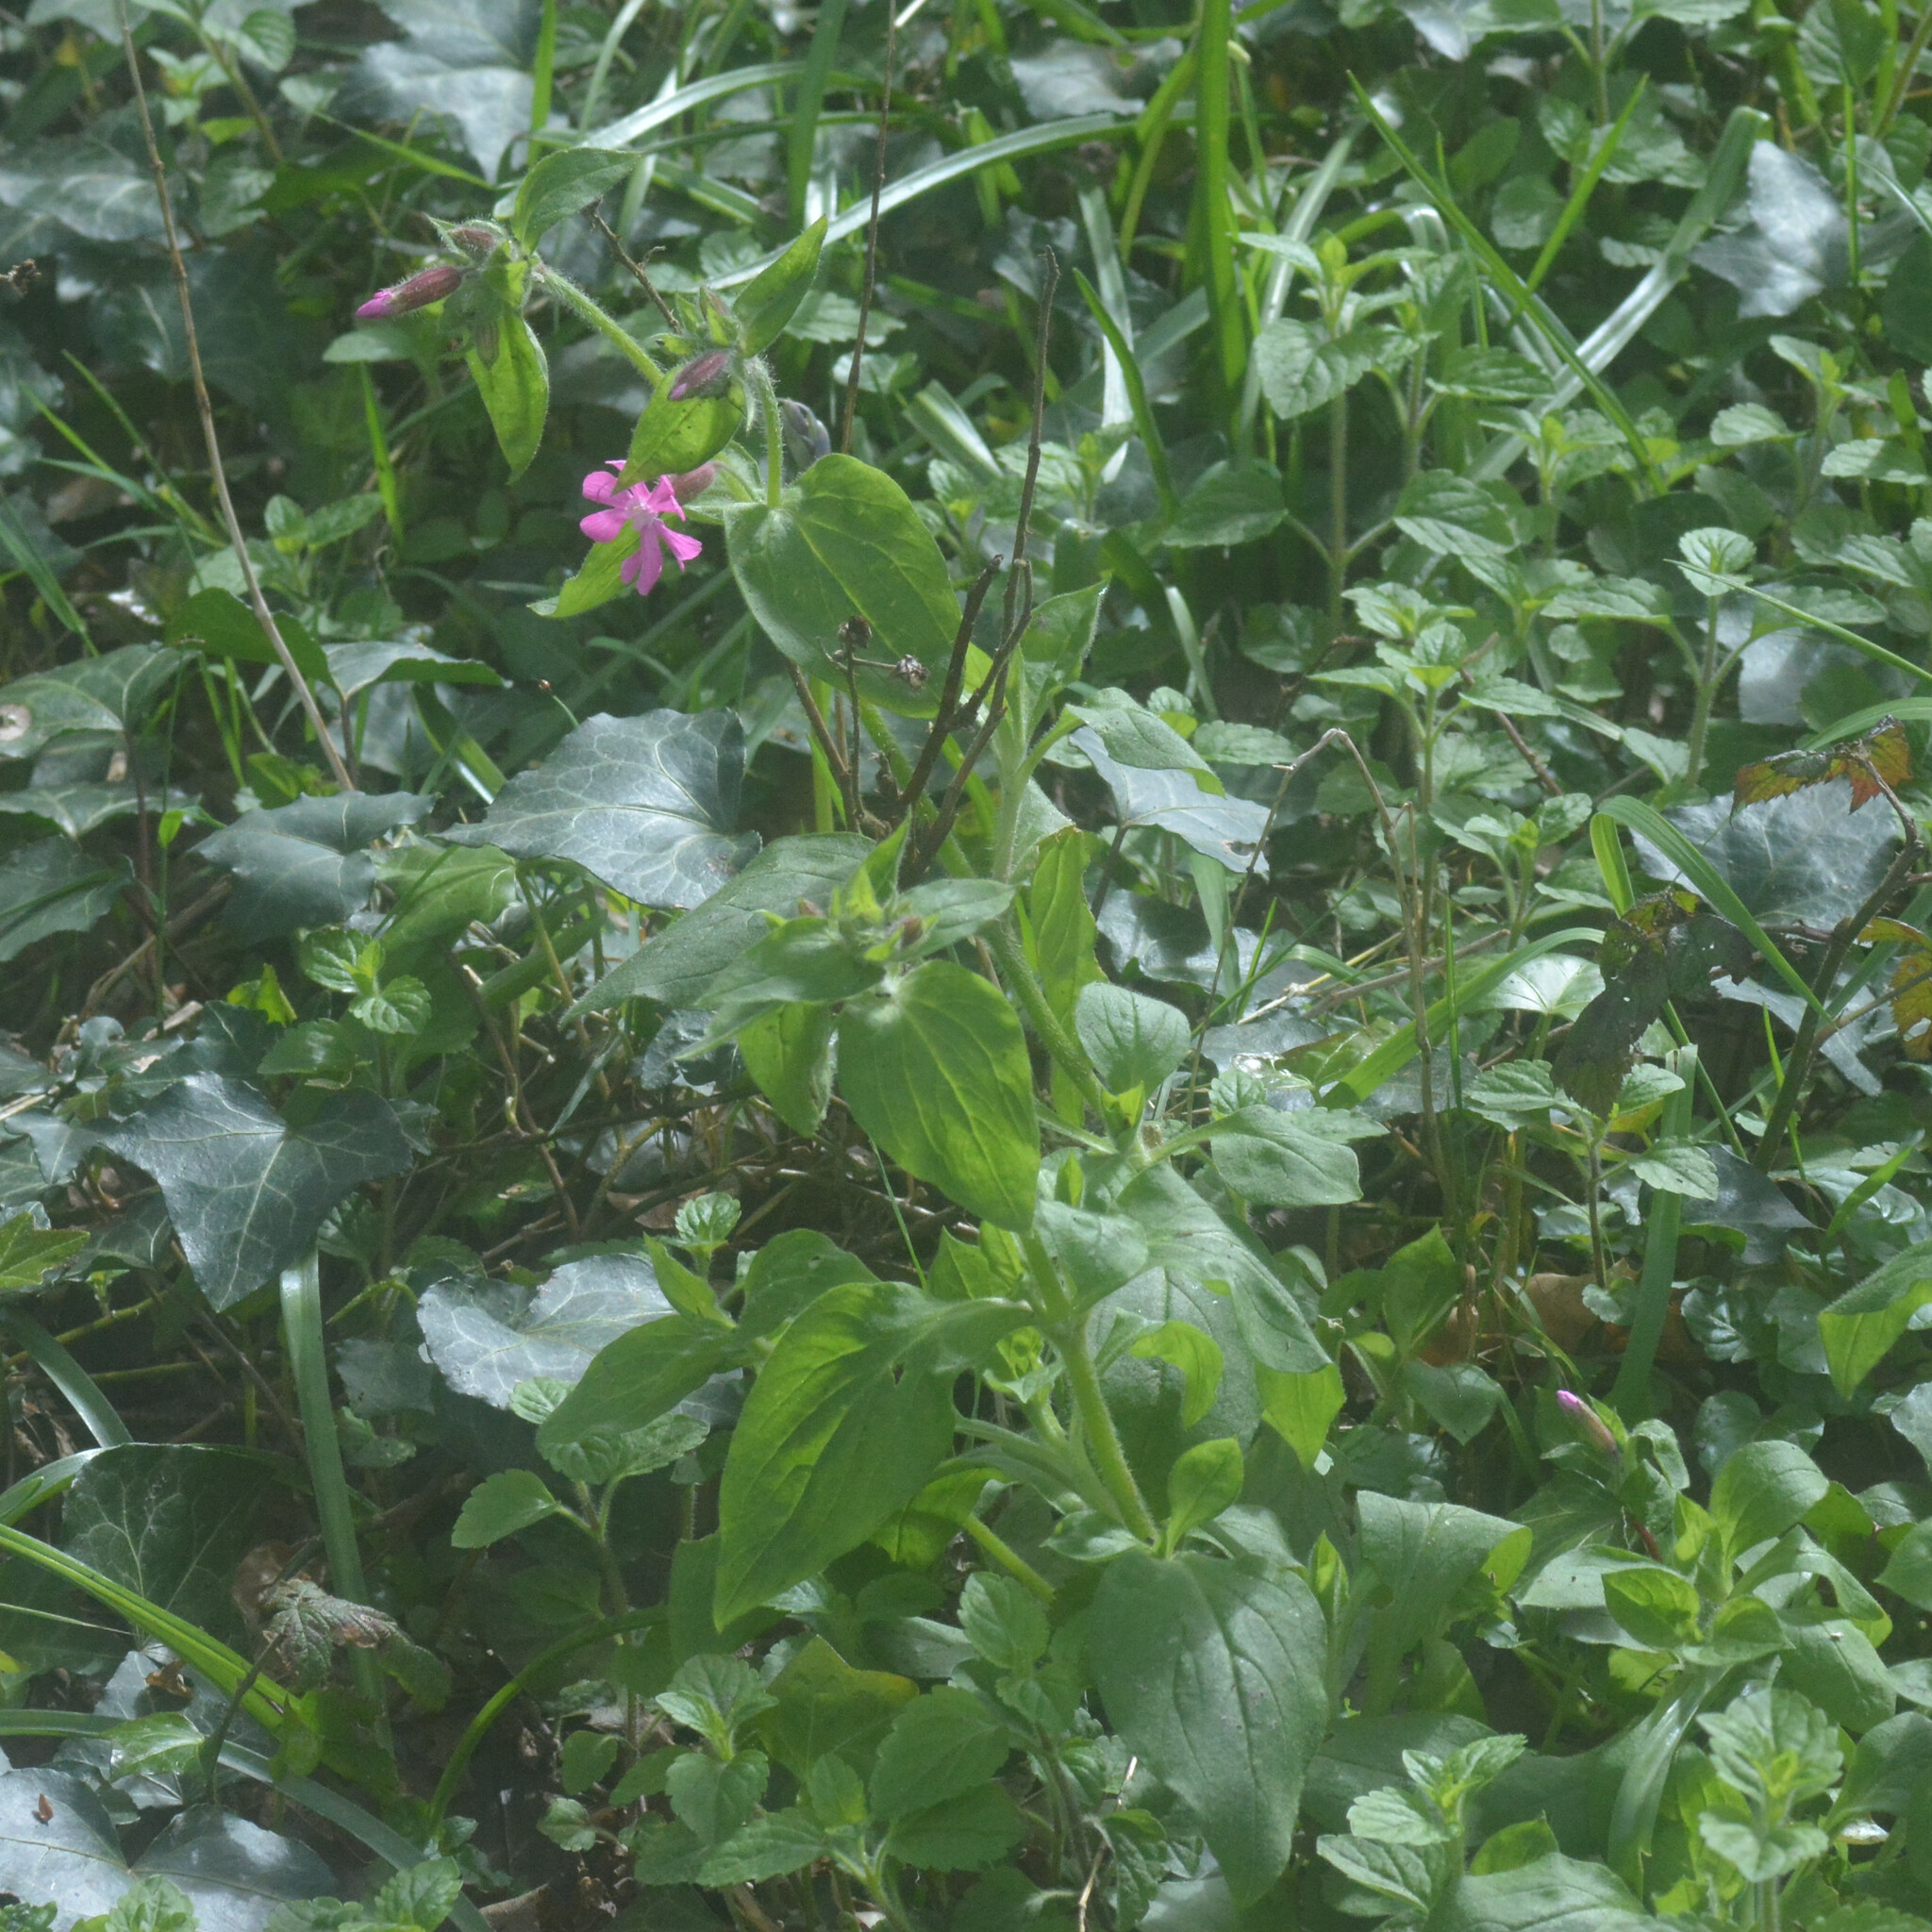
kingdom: Plantae
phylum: Tracheophyta
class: Magnoliopsida
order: Caryophyllales
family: Caryophyllaceae
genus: Silene
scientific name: Silene dioica
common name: Red campion
